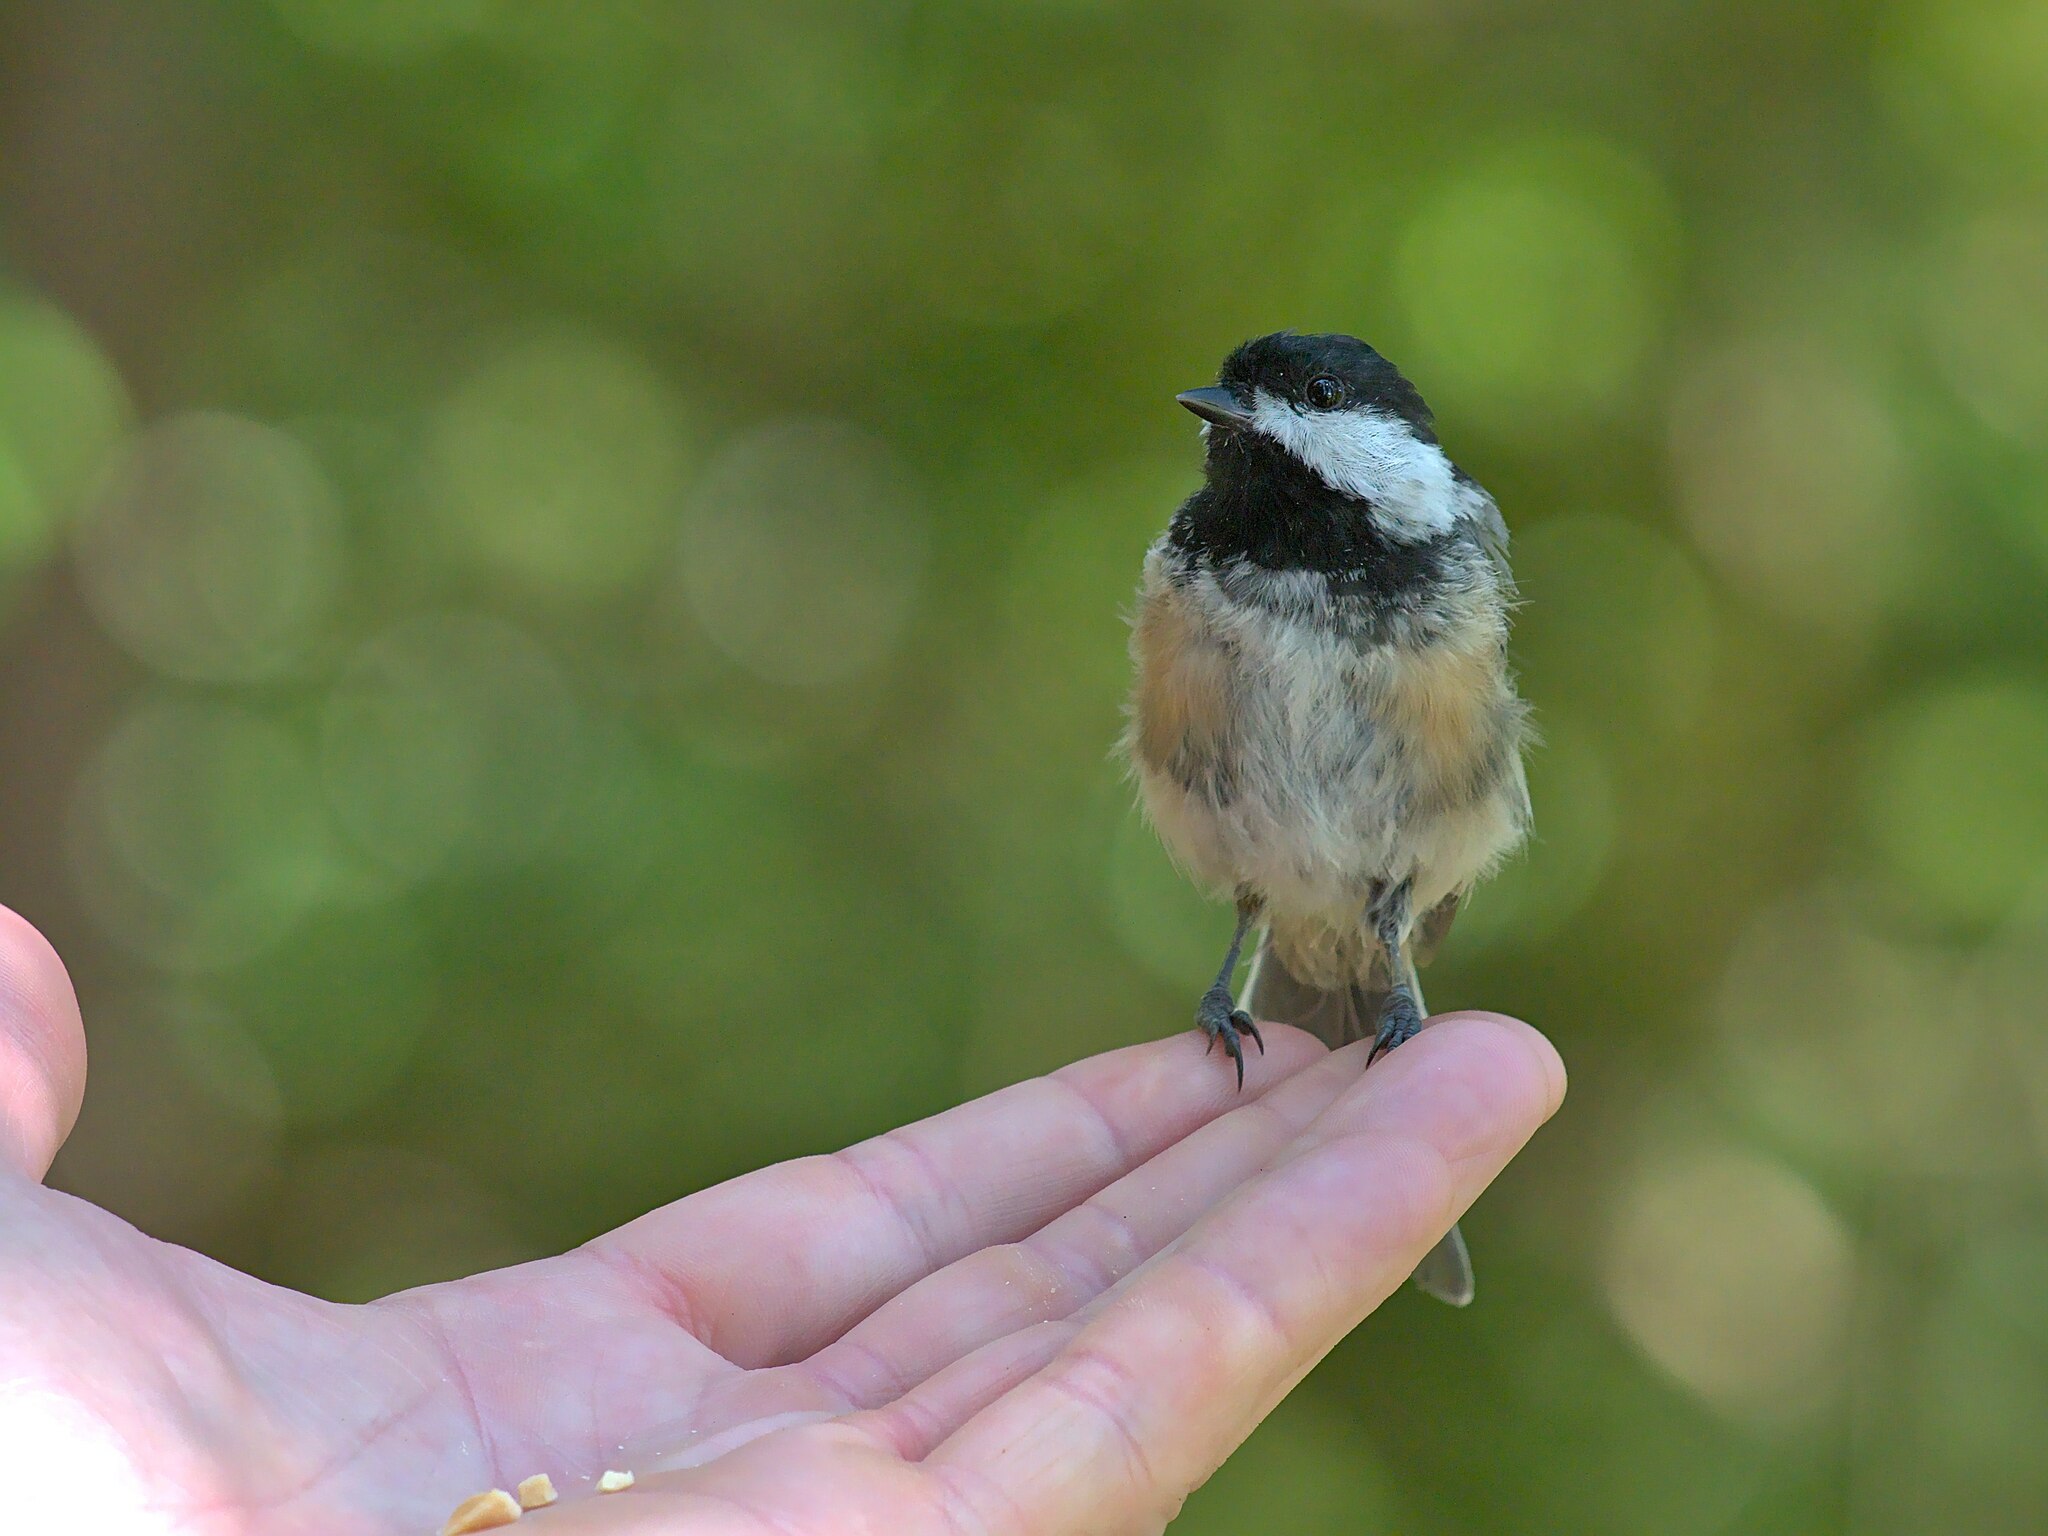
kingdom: Animalia
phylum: Chordata
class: Aves
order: Passeriformes
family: Paridae
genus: Poecile
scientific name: Poecile atricapillus
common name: Black-capped chickadee
